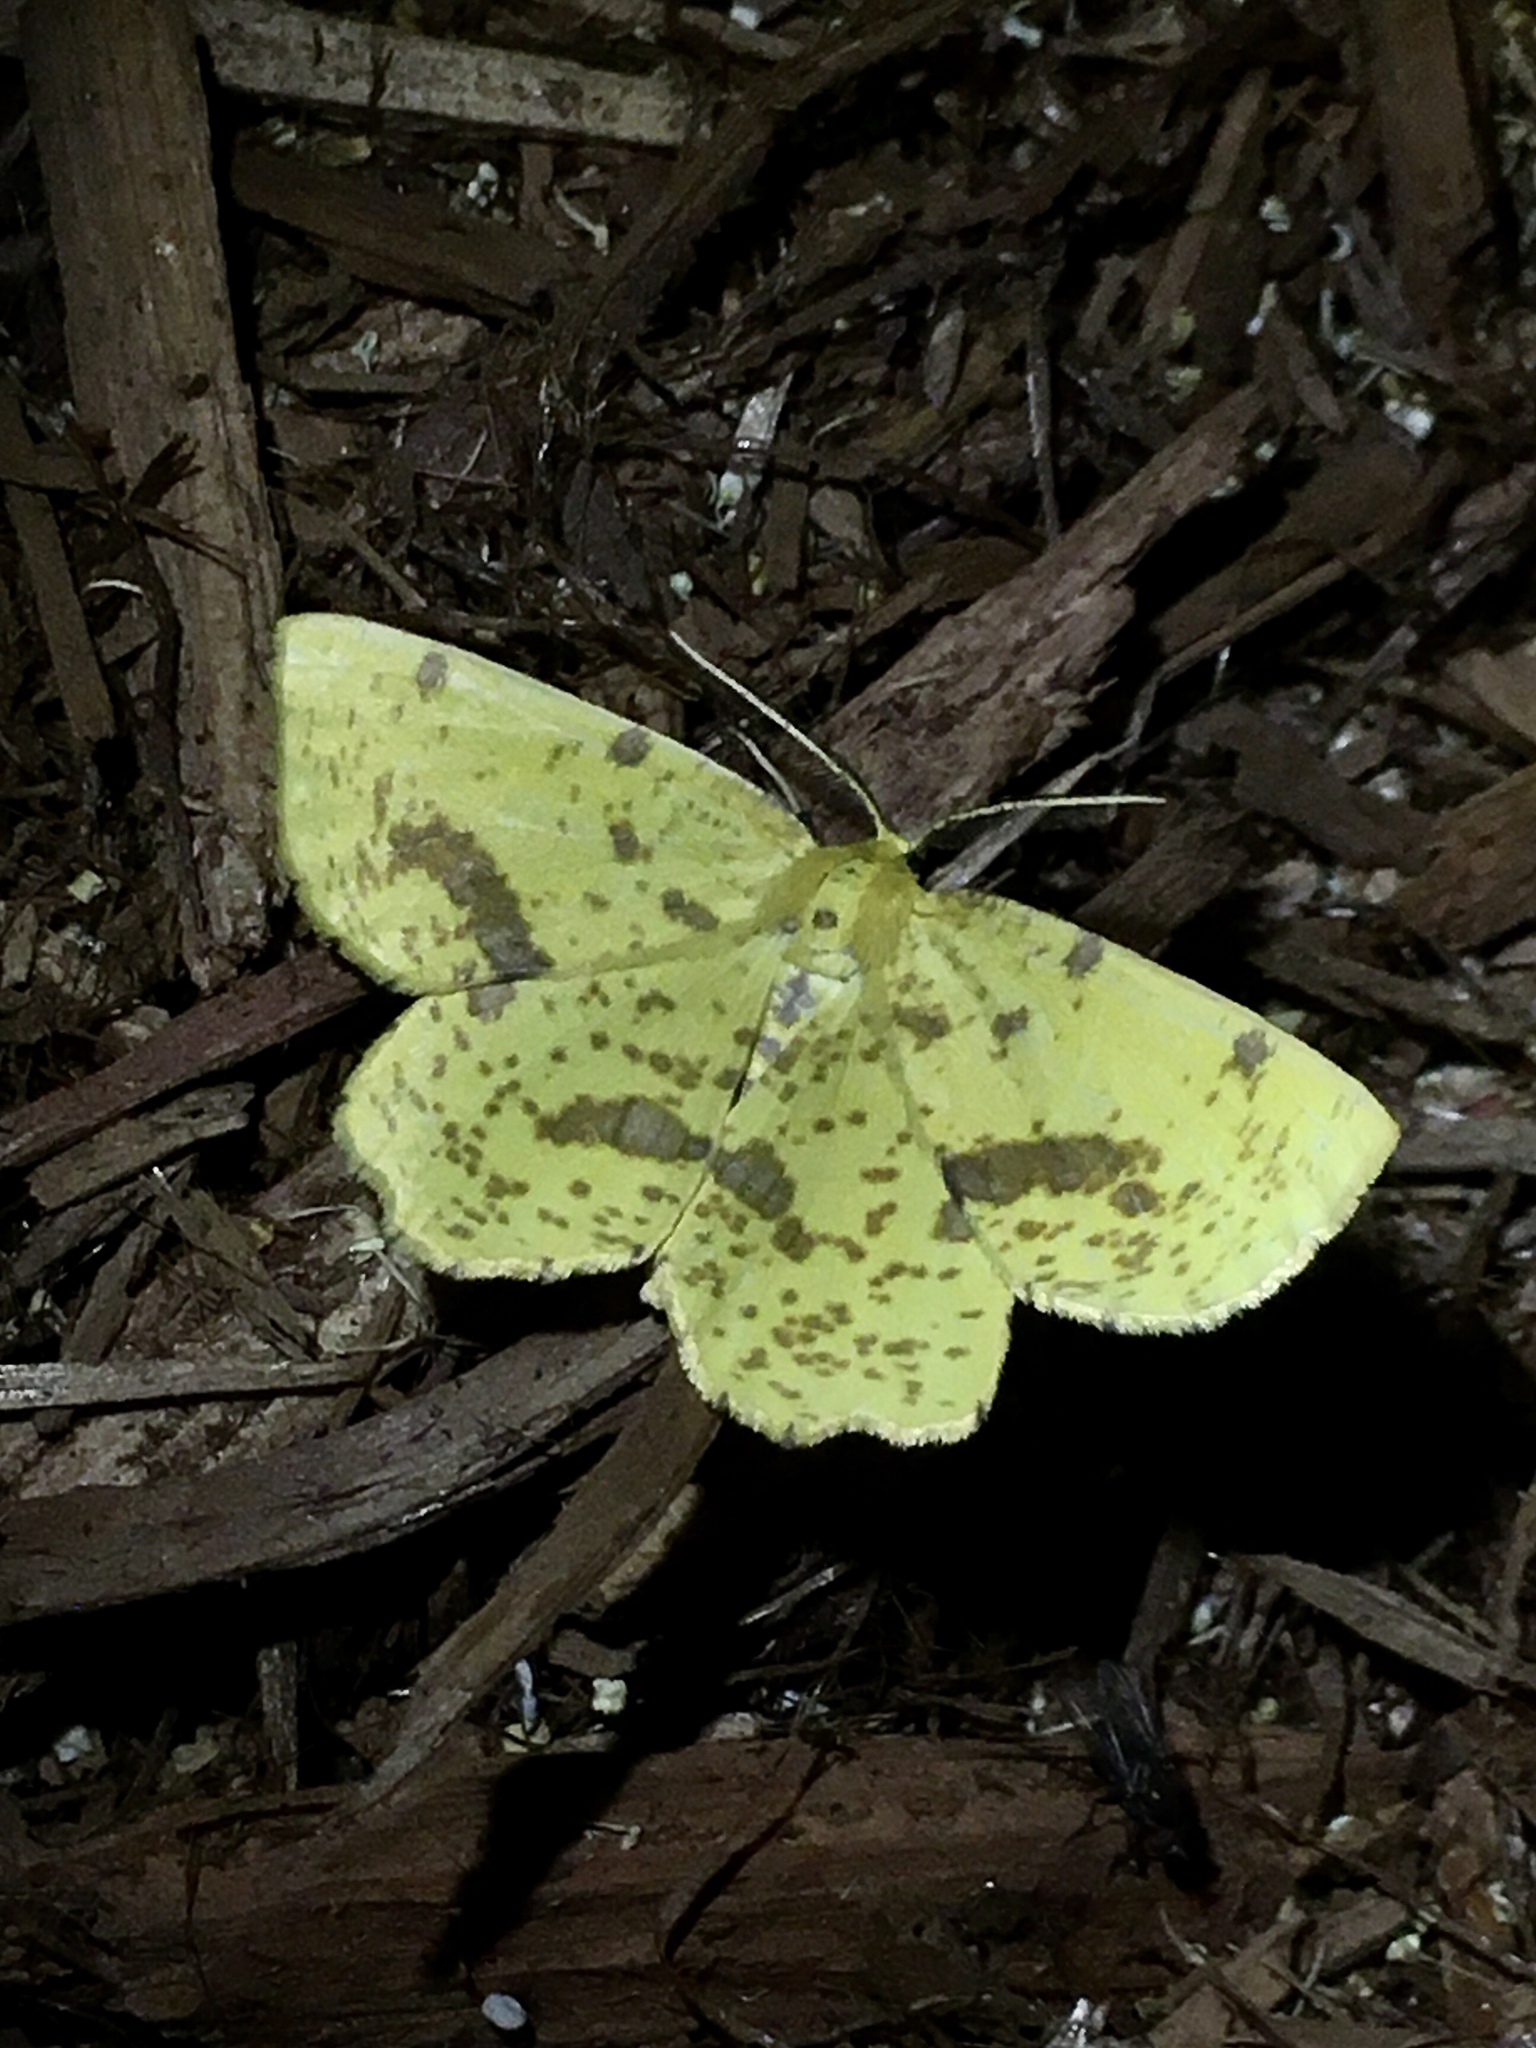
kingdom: Animalia
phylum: Arthropoda
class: Insecta
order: Lepidoptera
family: Geometridae
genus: Xanthotype
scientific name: Xanthotype
